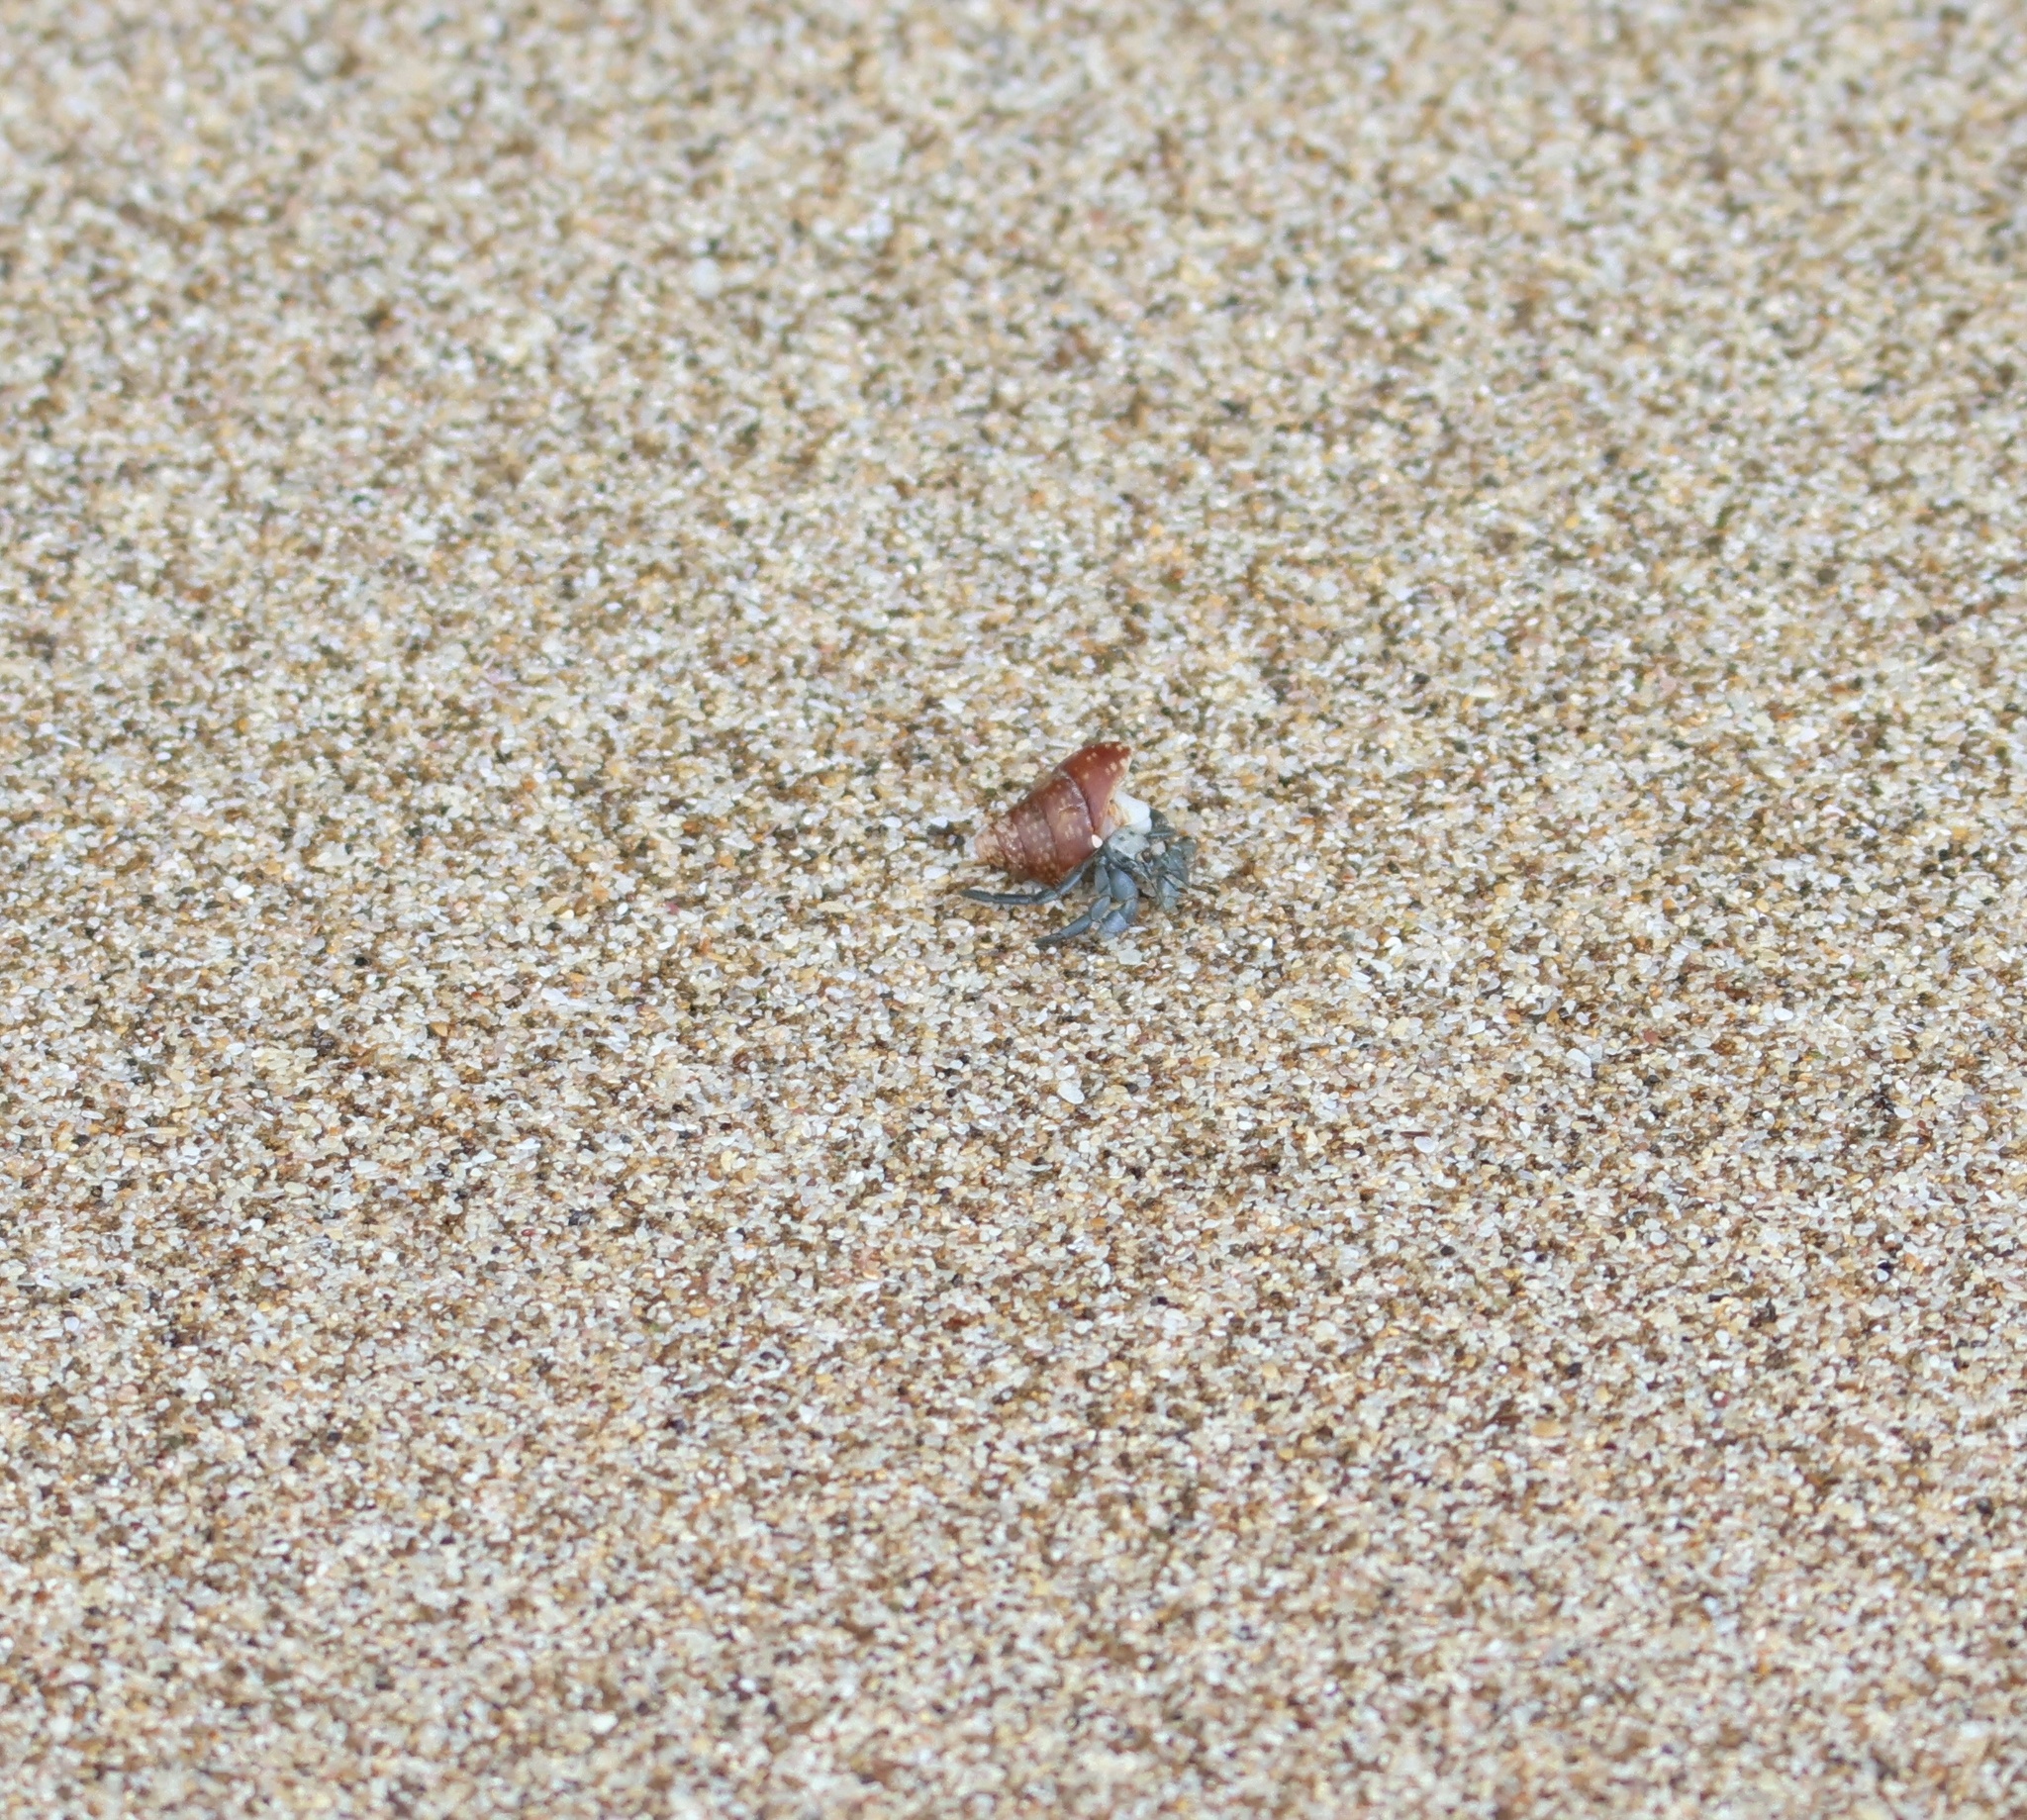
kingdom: Animalia
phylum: Arthropoda
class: Malacostraca
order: Decapoda
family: Coenobitidae
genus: Coenobita
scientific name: Coenobita compressus
